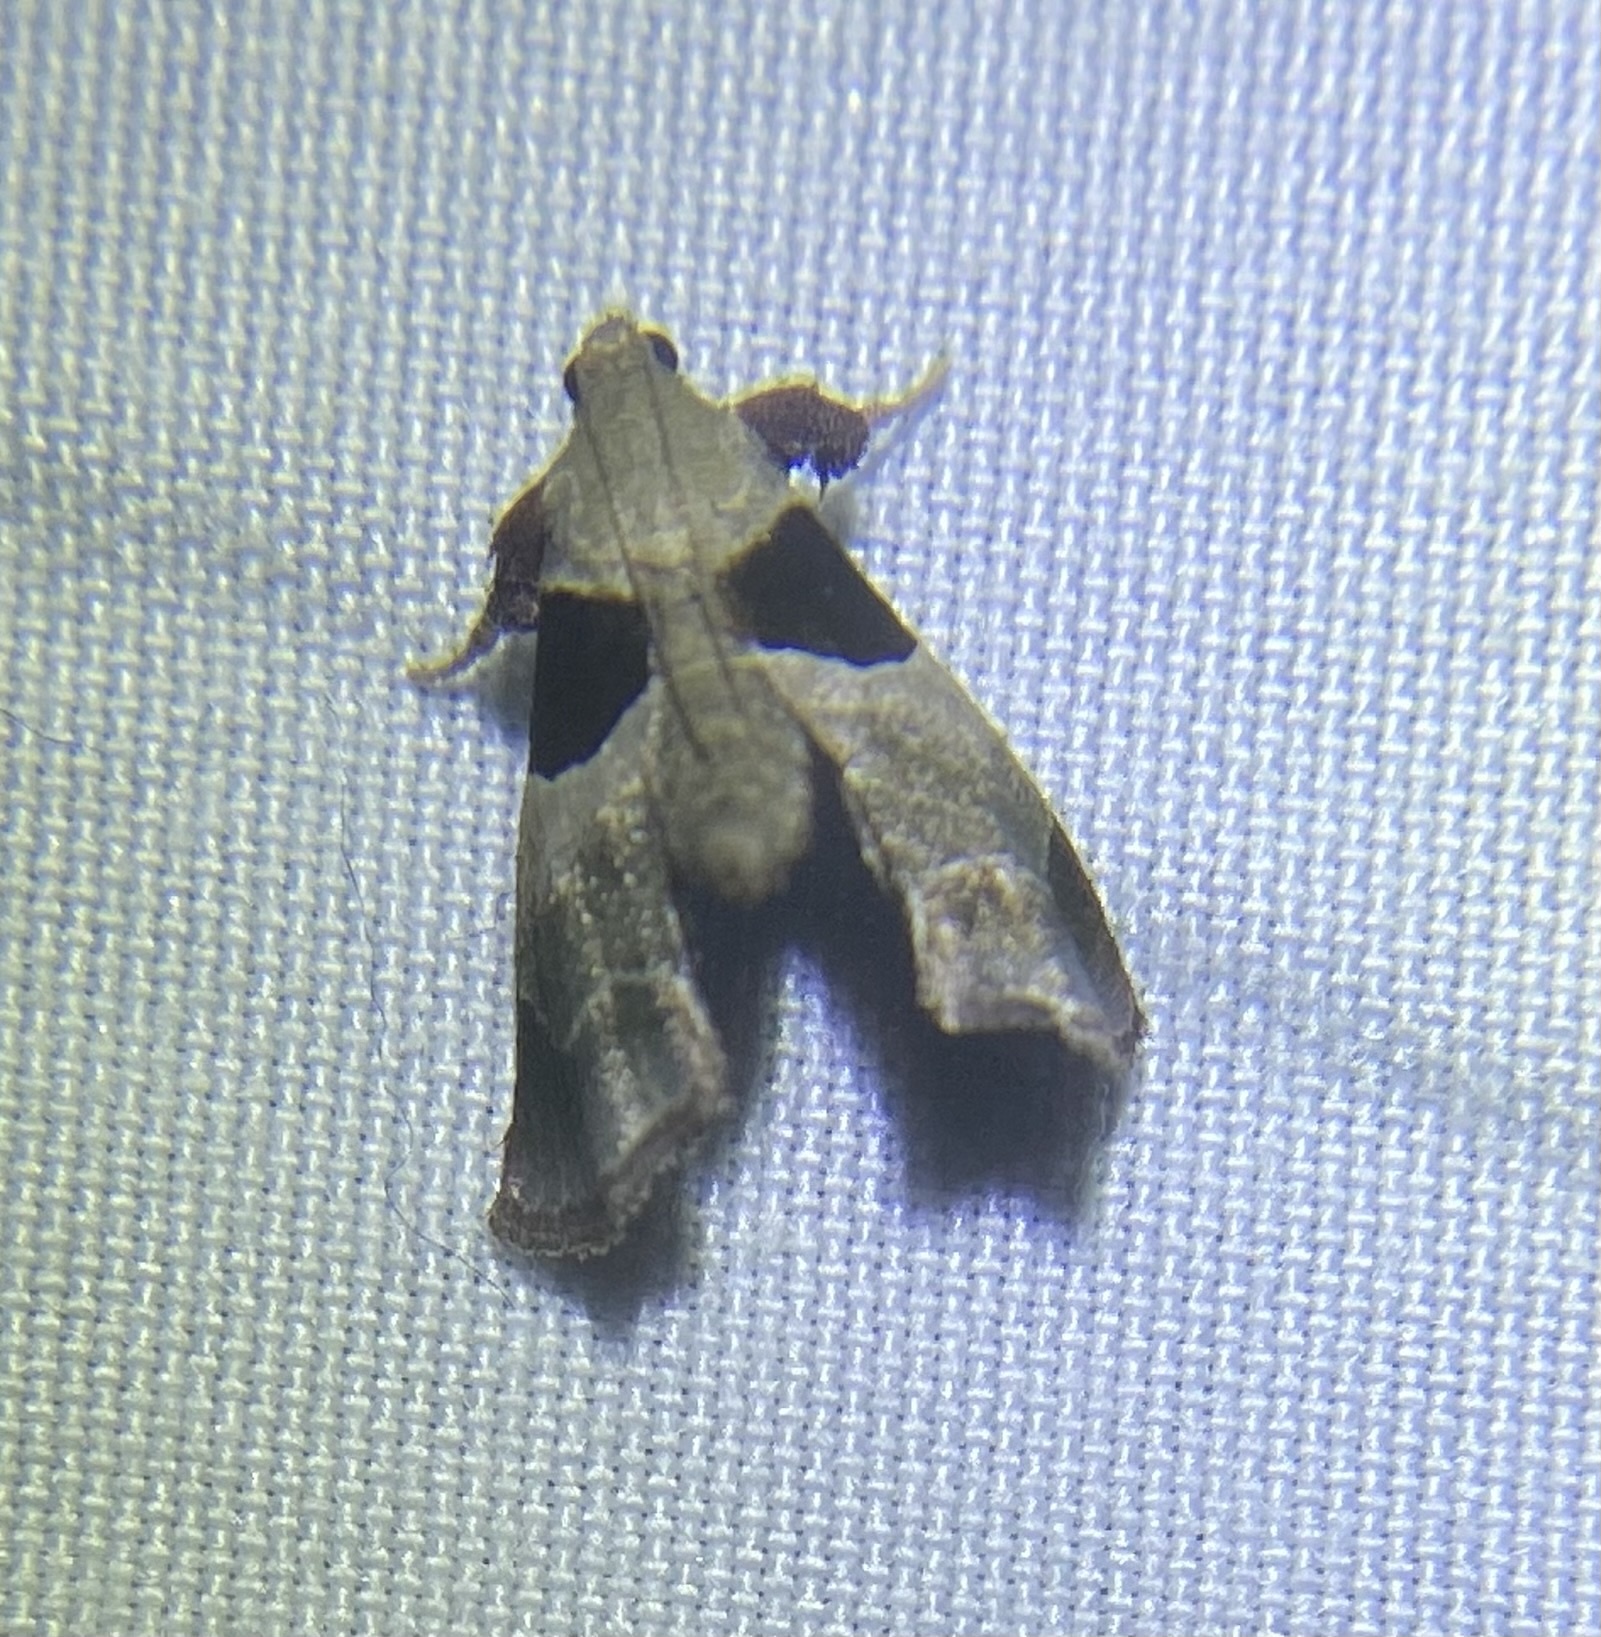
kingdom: Animalia
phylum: Arthropoda
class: Insecta
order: Lepidoptera
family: Pyralidae
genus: Tosale
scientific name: Tosale oviplagalis
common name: Dimorphic tosale moth
